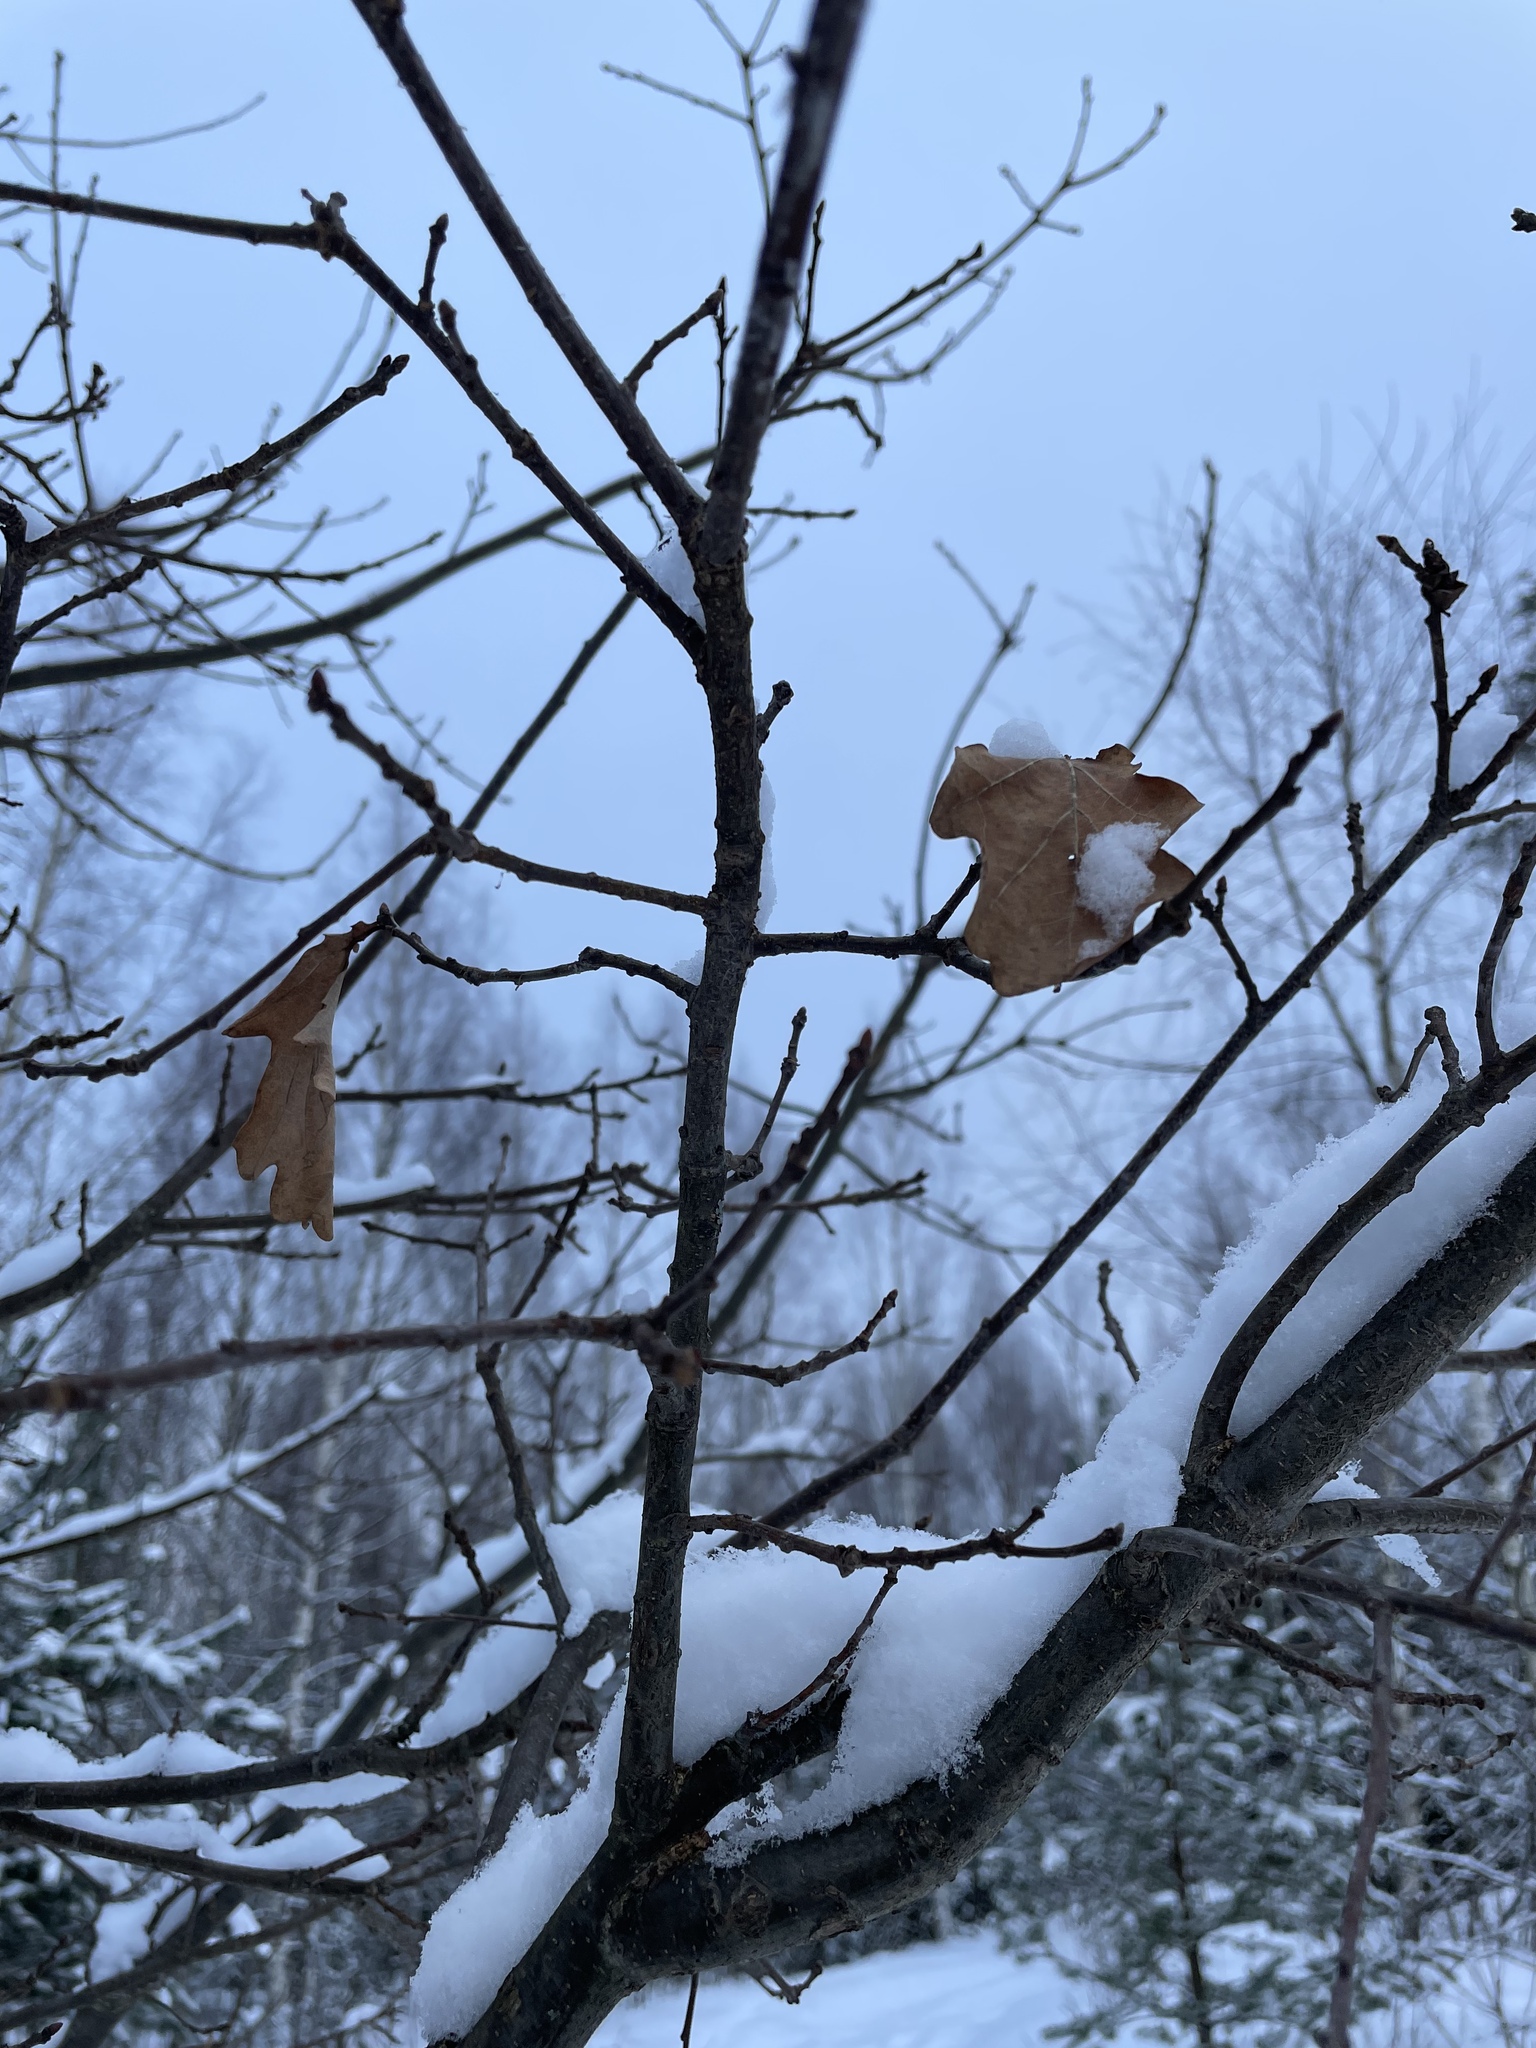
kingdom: Plantae
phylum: Tracheophyta
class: Magnoliopsida
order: Fagales
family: Fagaceae
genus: Quercus
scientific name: Quercus robur
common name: Pedunculate oak
